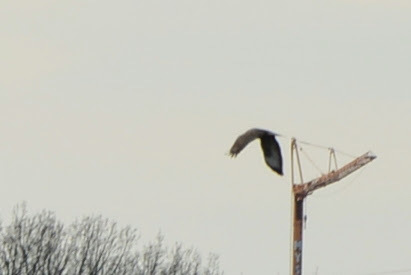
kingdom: Animalia
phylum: Chordata
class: Aves
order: Accipitriformes
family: Accipitridae
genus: Buteo
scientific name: Buteo buteo
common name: Common buzzard
